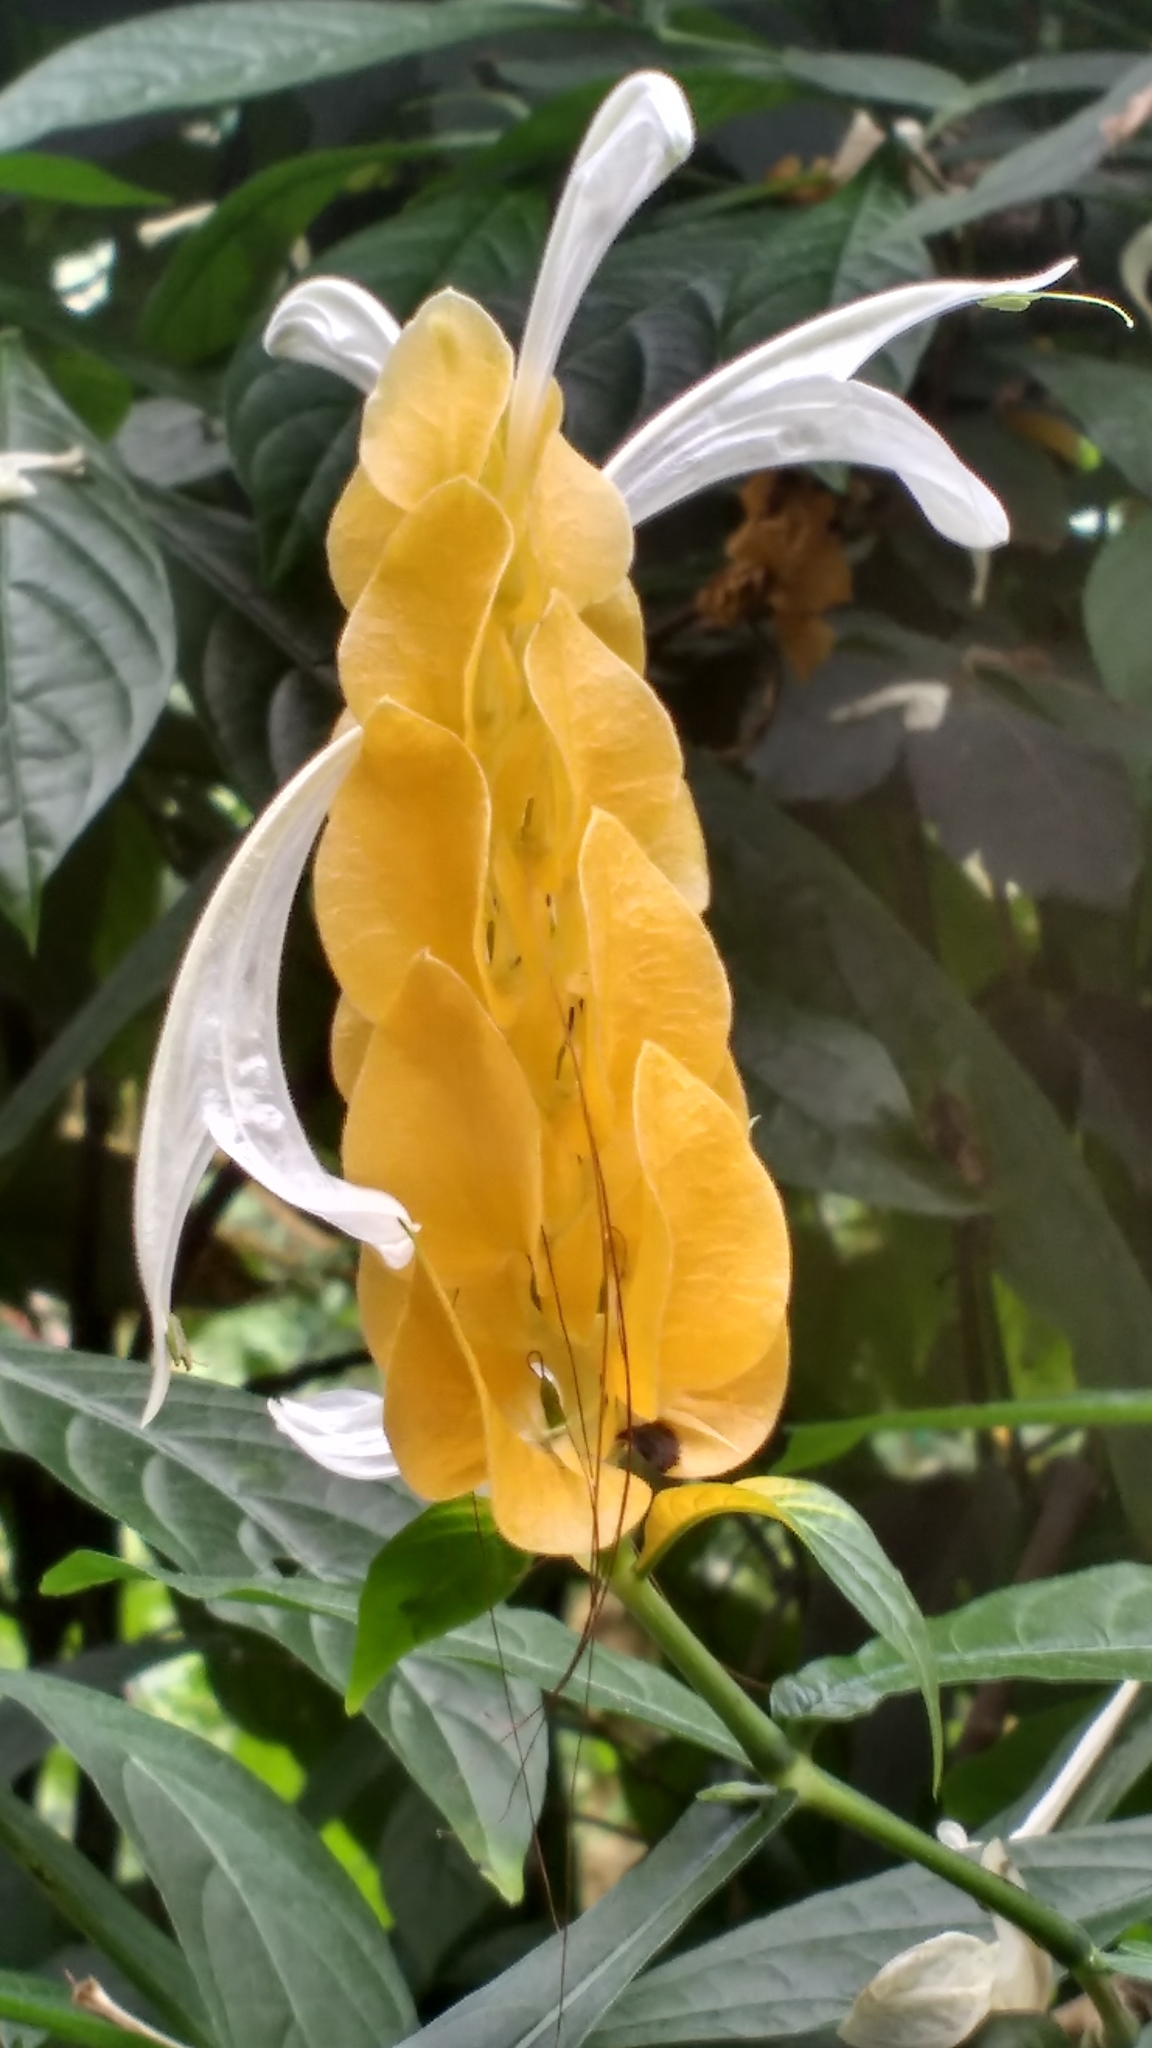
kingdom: Plantae
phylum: Tracheophyta
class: Magnoliopsida
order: Lamiales
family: Acanthaceae
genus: Pachystachys
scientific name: Pachystachys lutea
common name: Golden shrimp-plant
